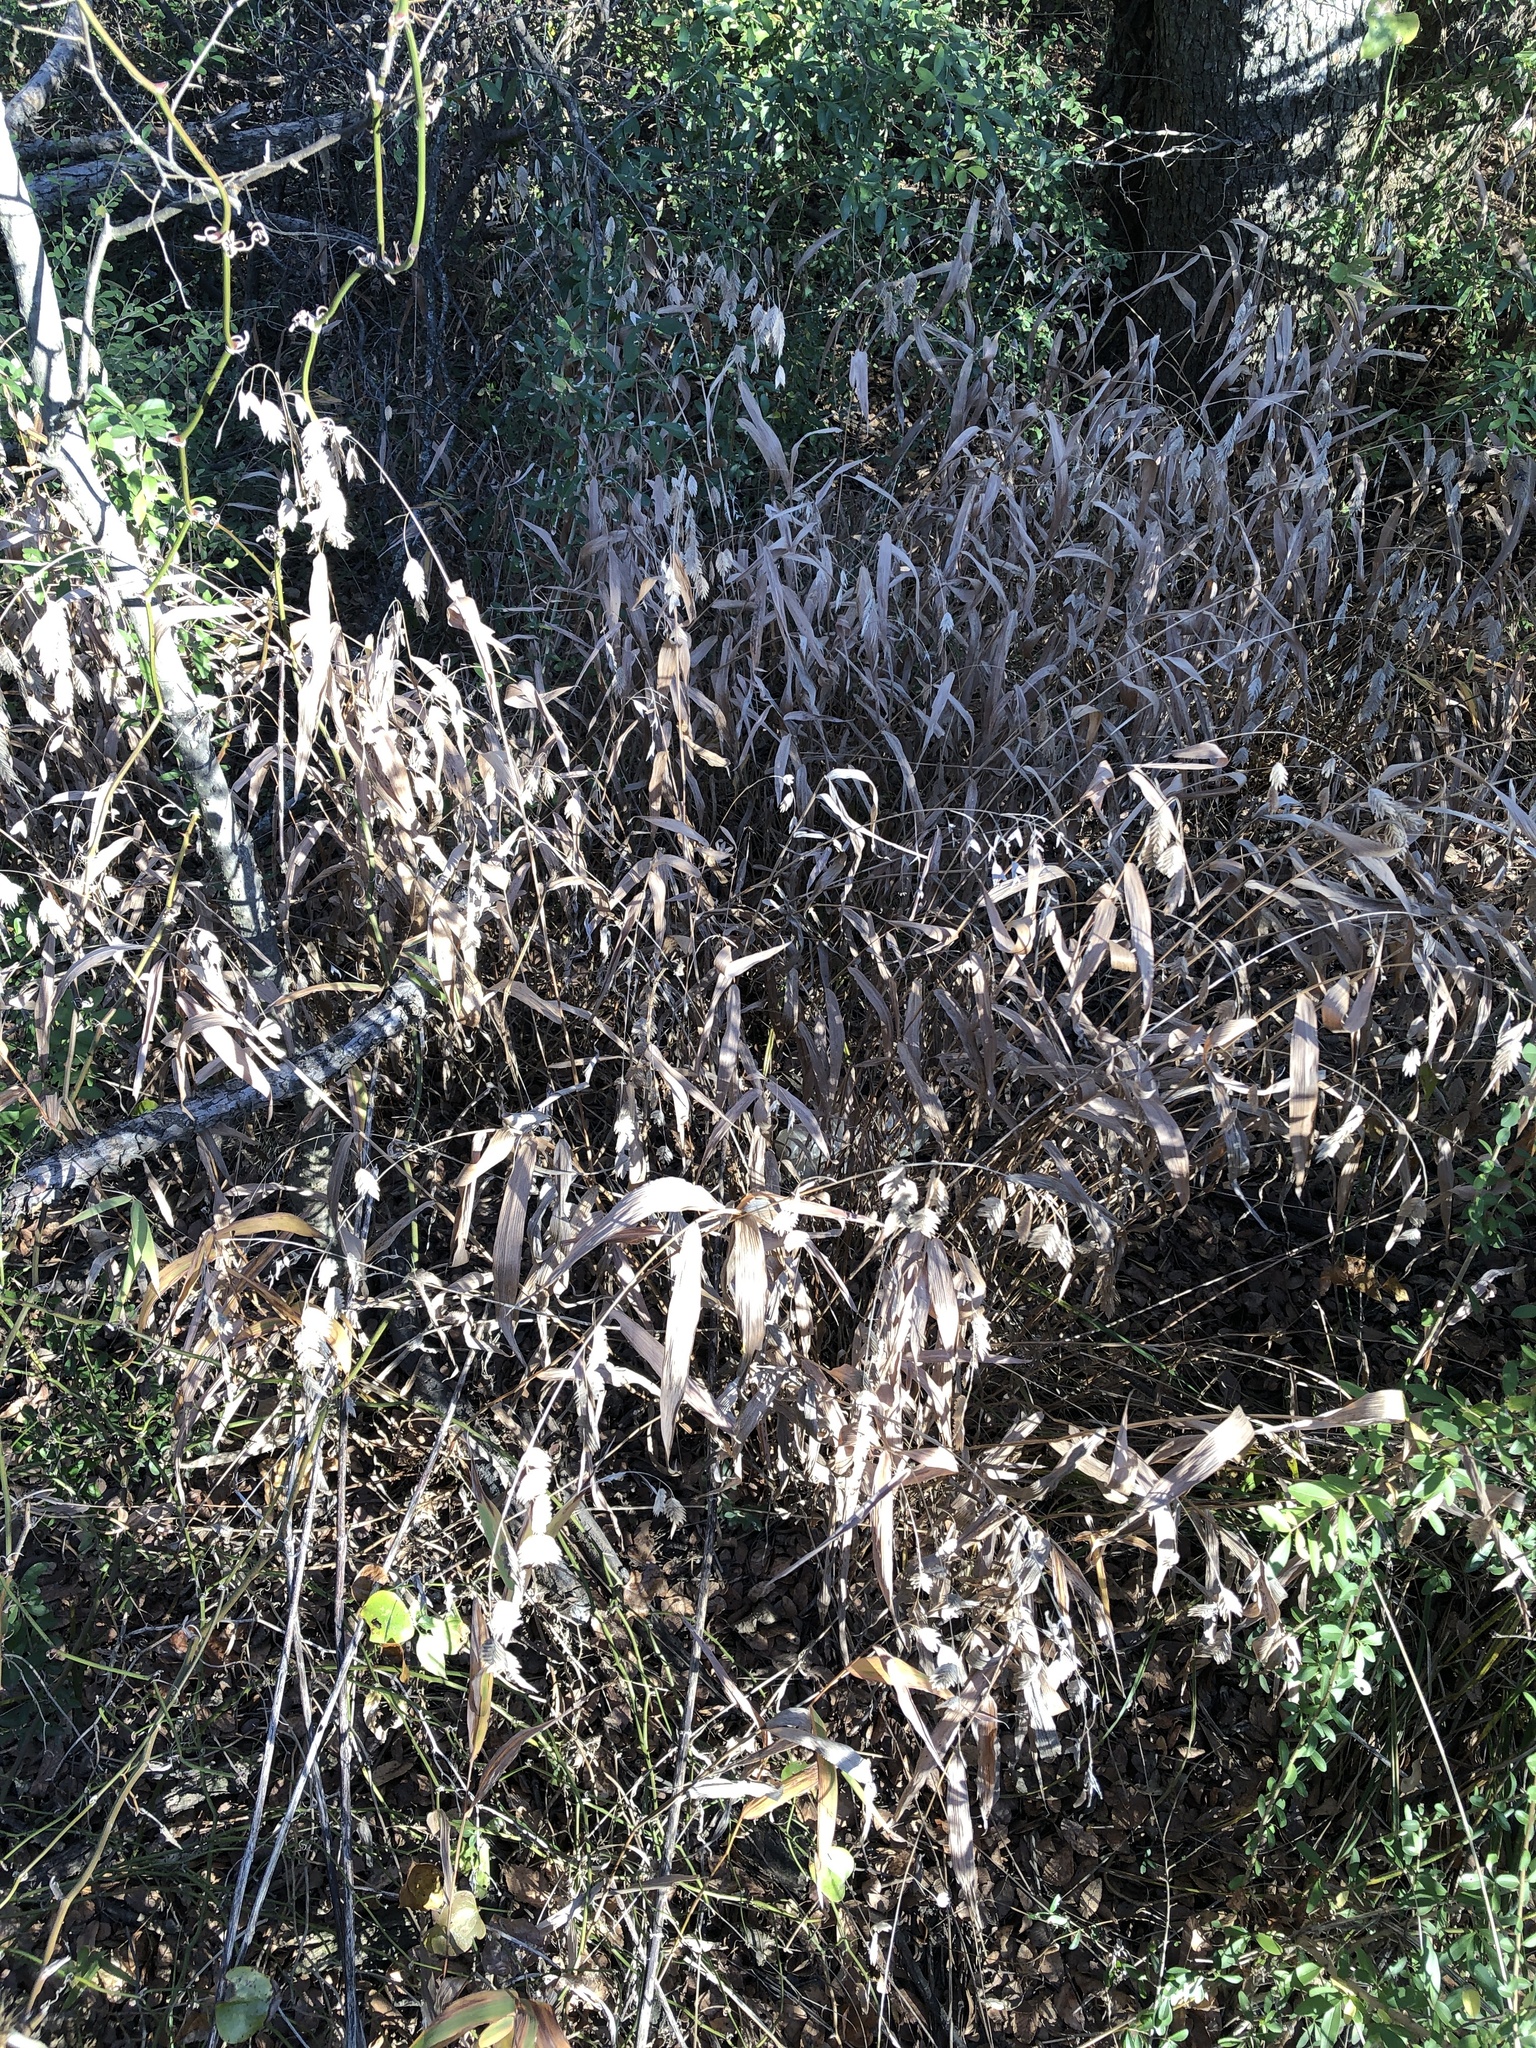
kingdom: Plantae
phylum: Tracheophyta
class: Liliopsida
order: Poales
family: Poaceae
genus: Chasmanthium
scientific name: Chasmanthium latifolium
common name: Broad-leaved chasmanthium
